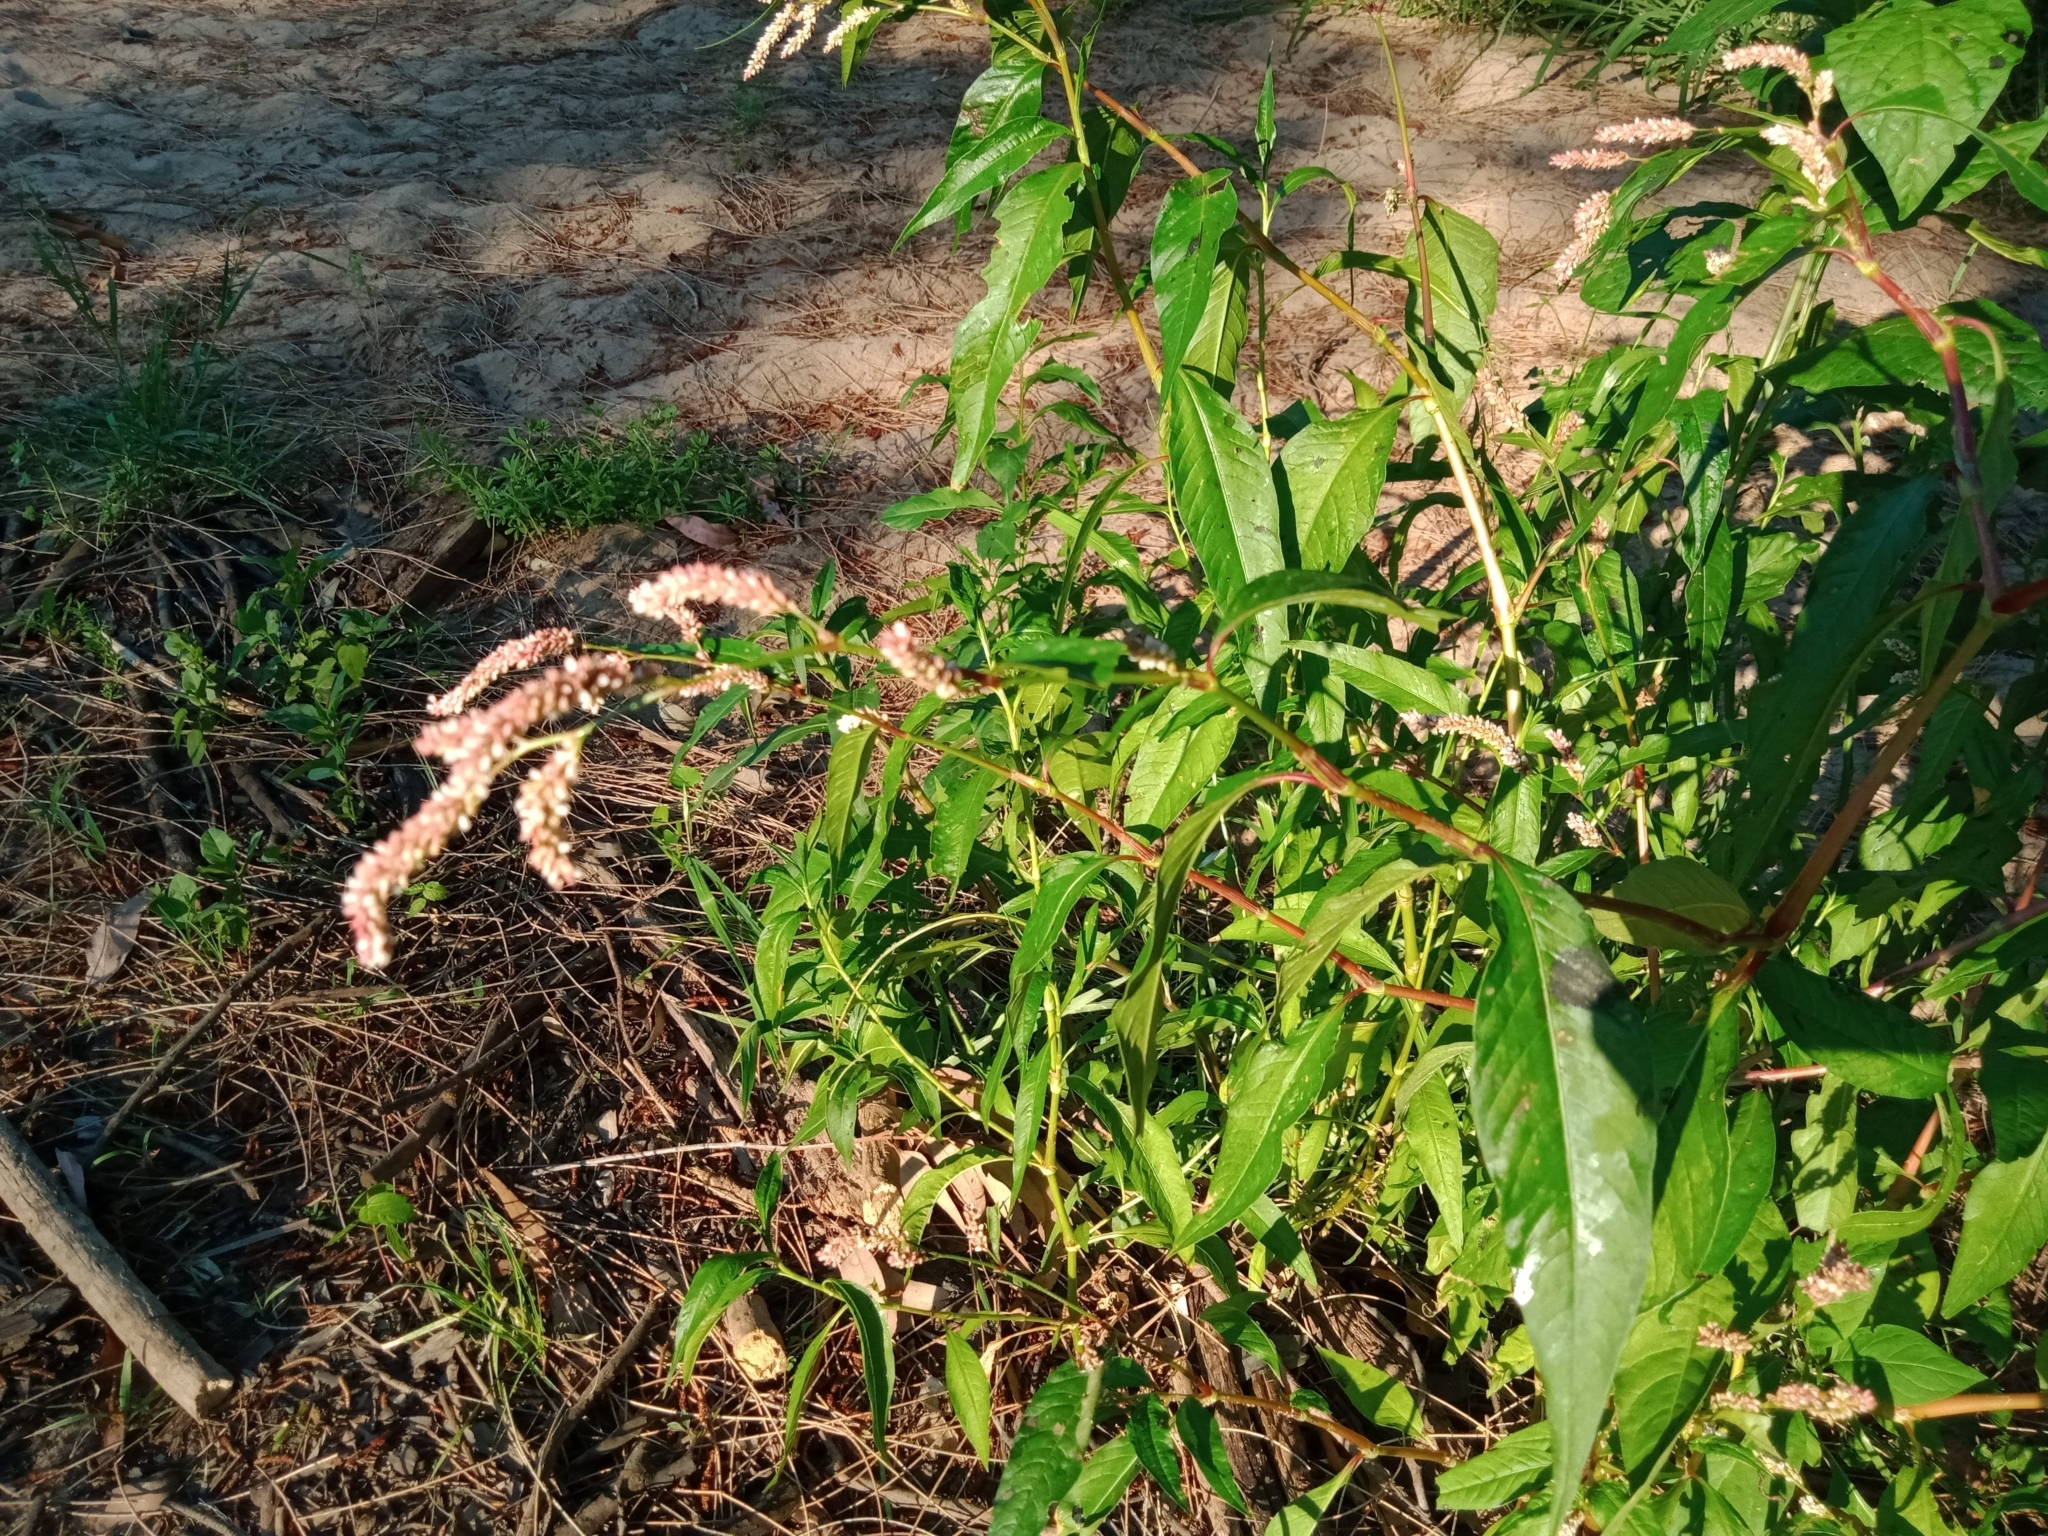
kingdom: Plantae
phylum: Tracheophyta
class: Magnoliopsida
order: Caryophyllales
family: Polygonaceae
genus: Persicaria
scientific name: Persicaria lapathifolia
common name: Curlytop knotweed
